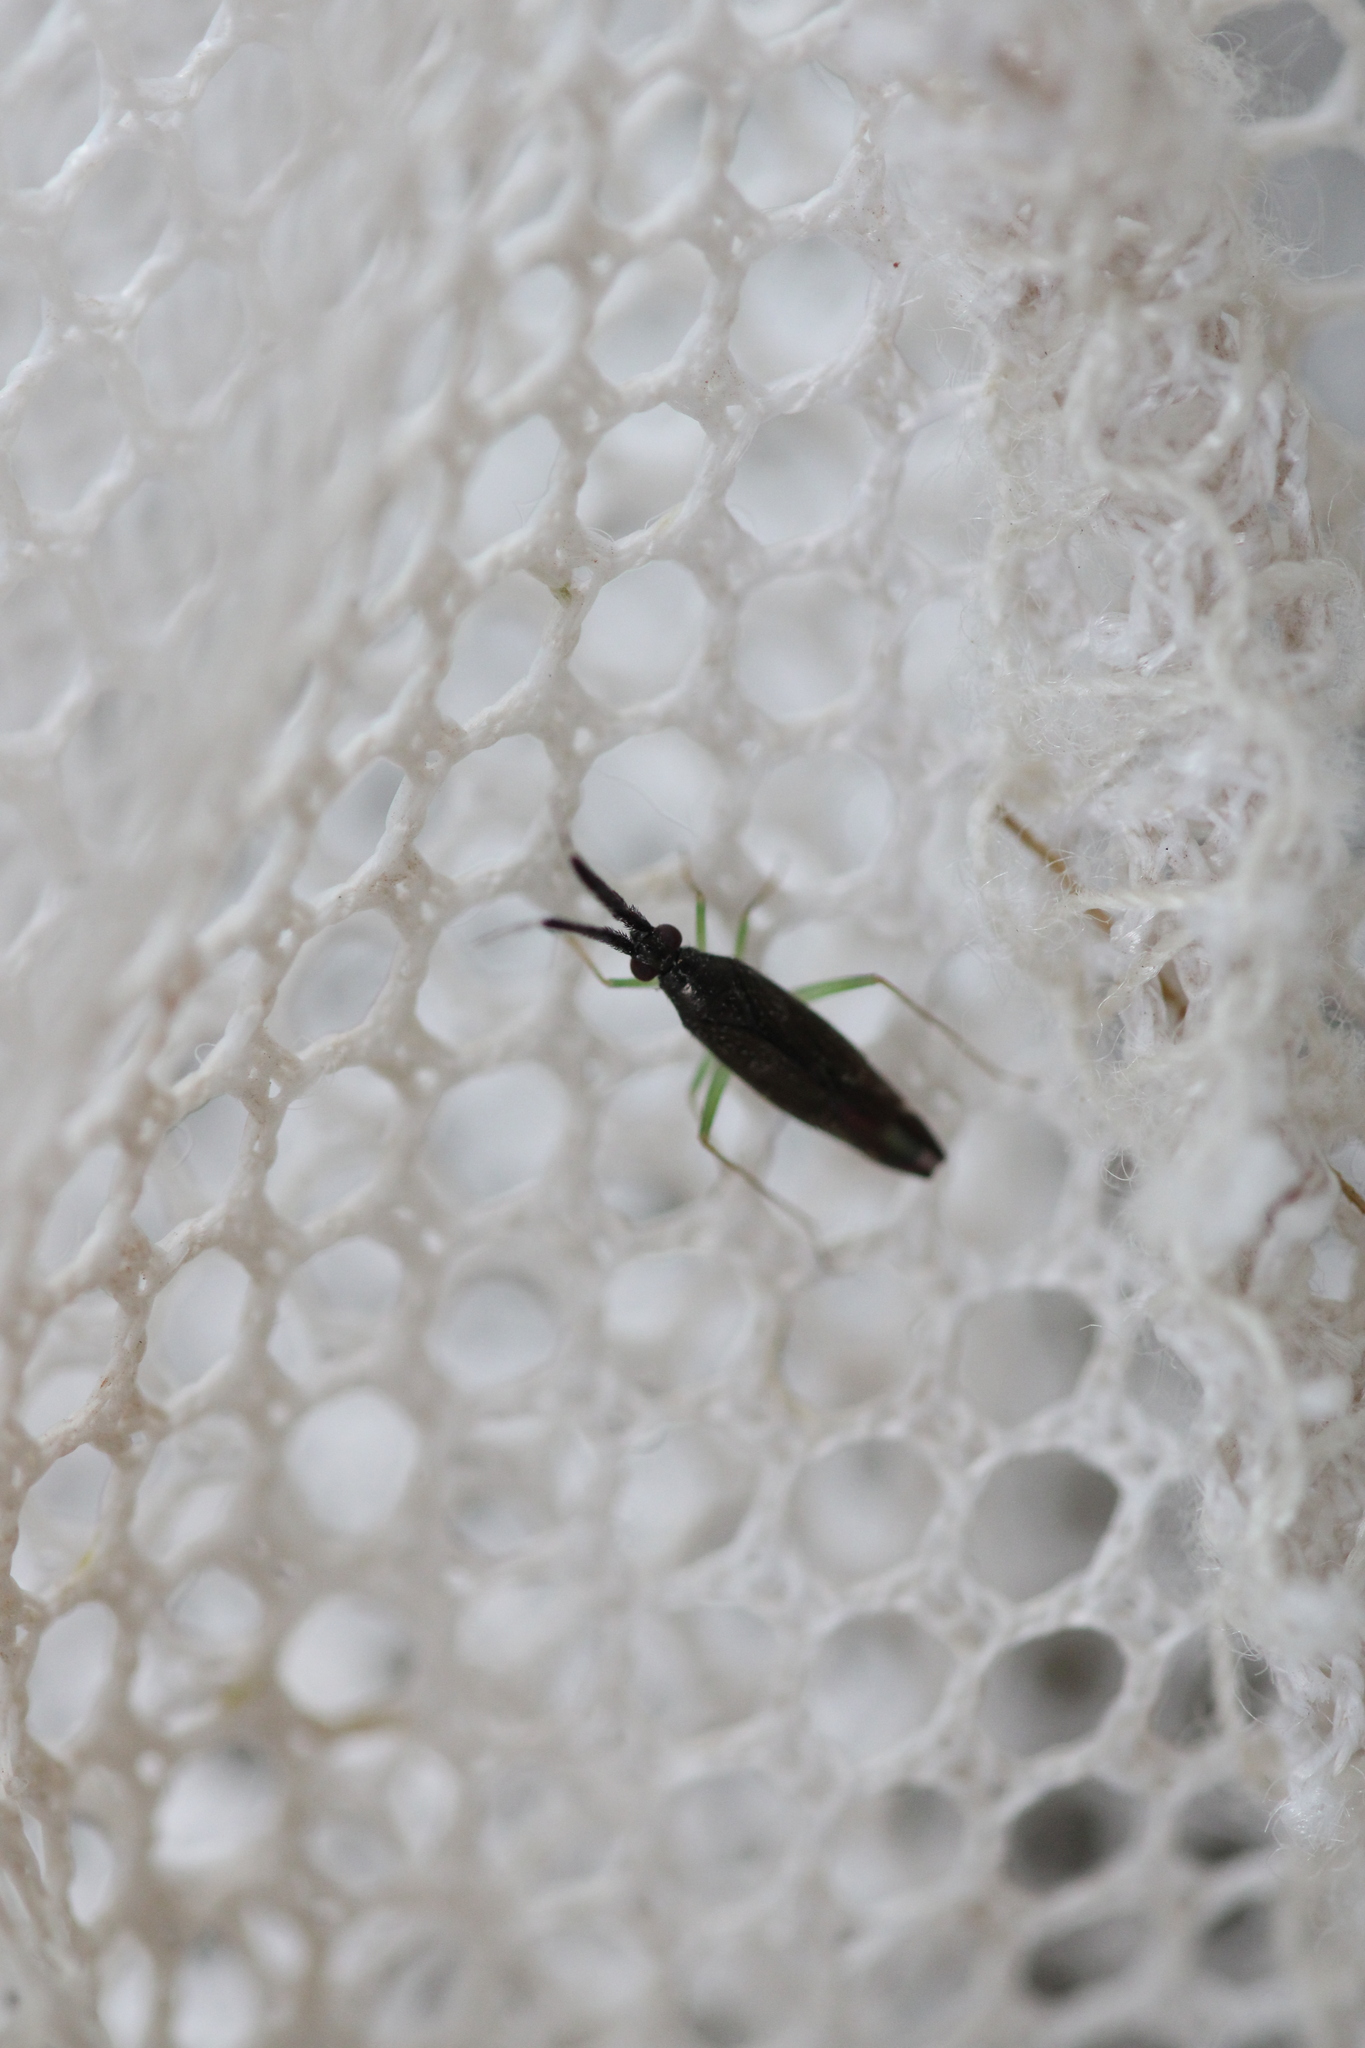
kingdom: Animalia
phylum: Arthropoda
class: Insecta
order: Hemiptera
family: Miridae
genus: Heterotoma
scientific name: Heterotoma planicornis
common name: Plant bug
